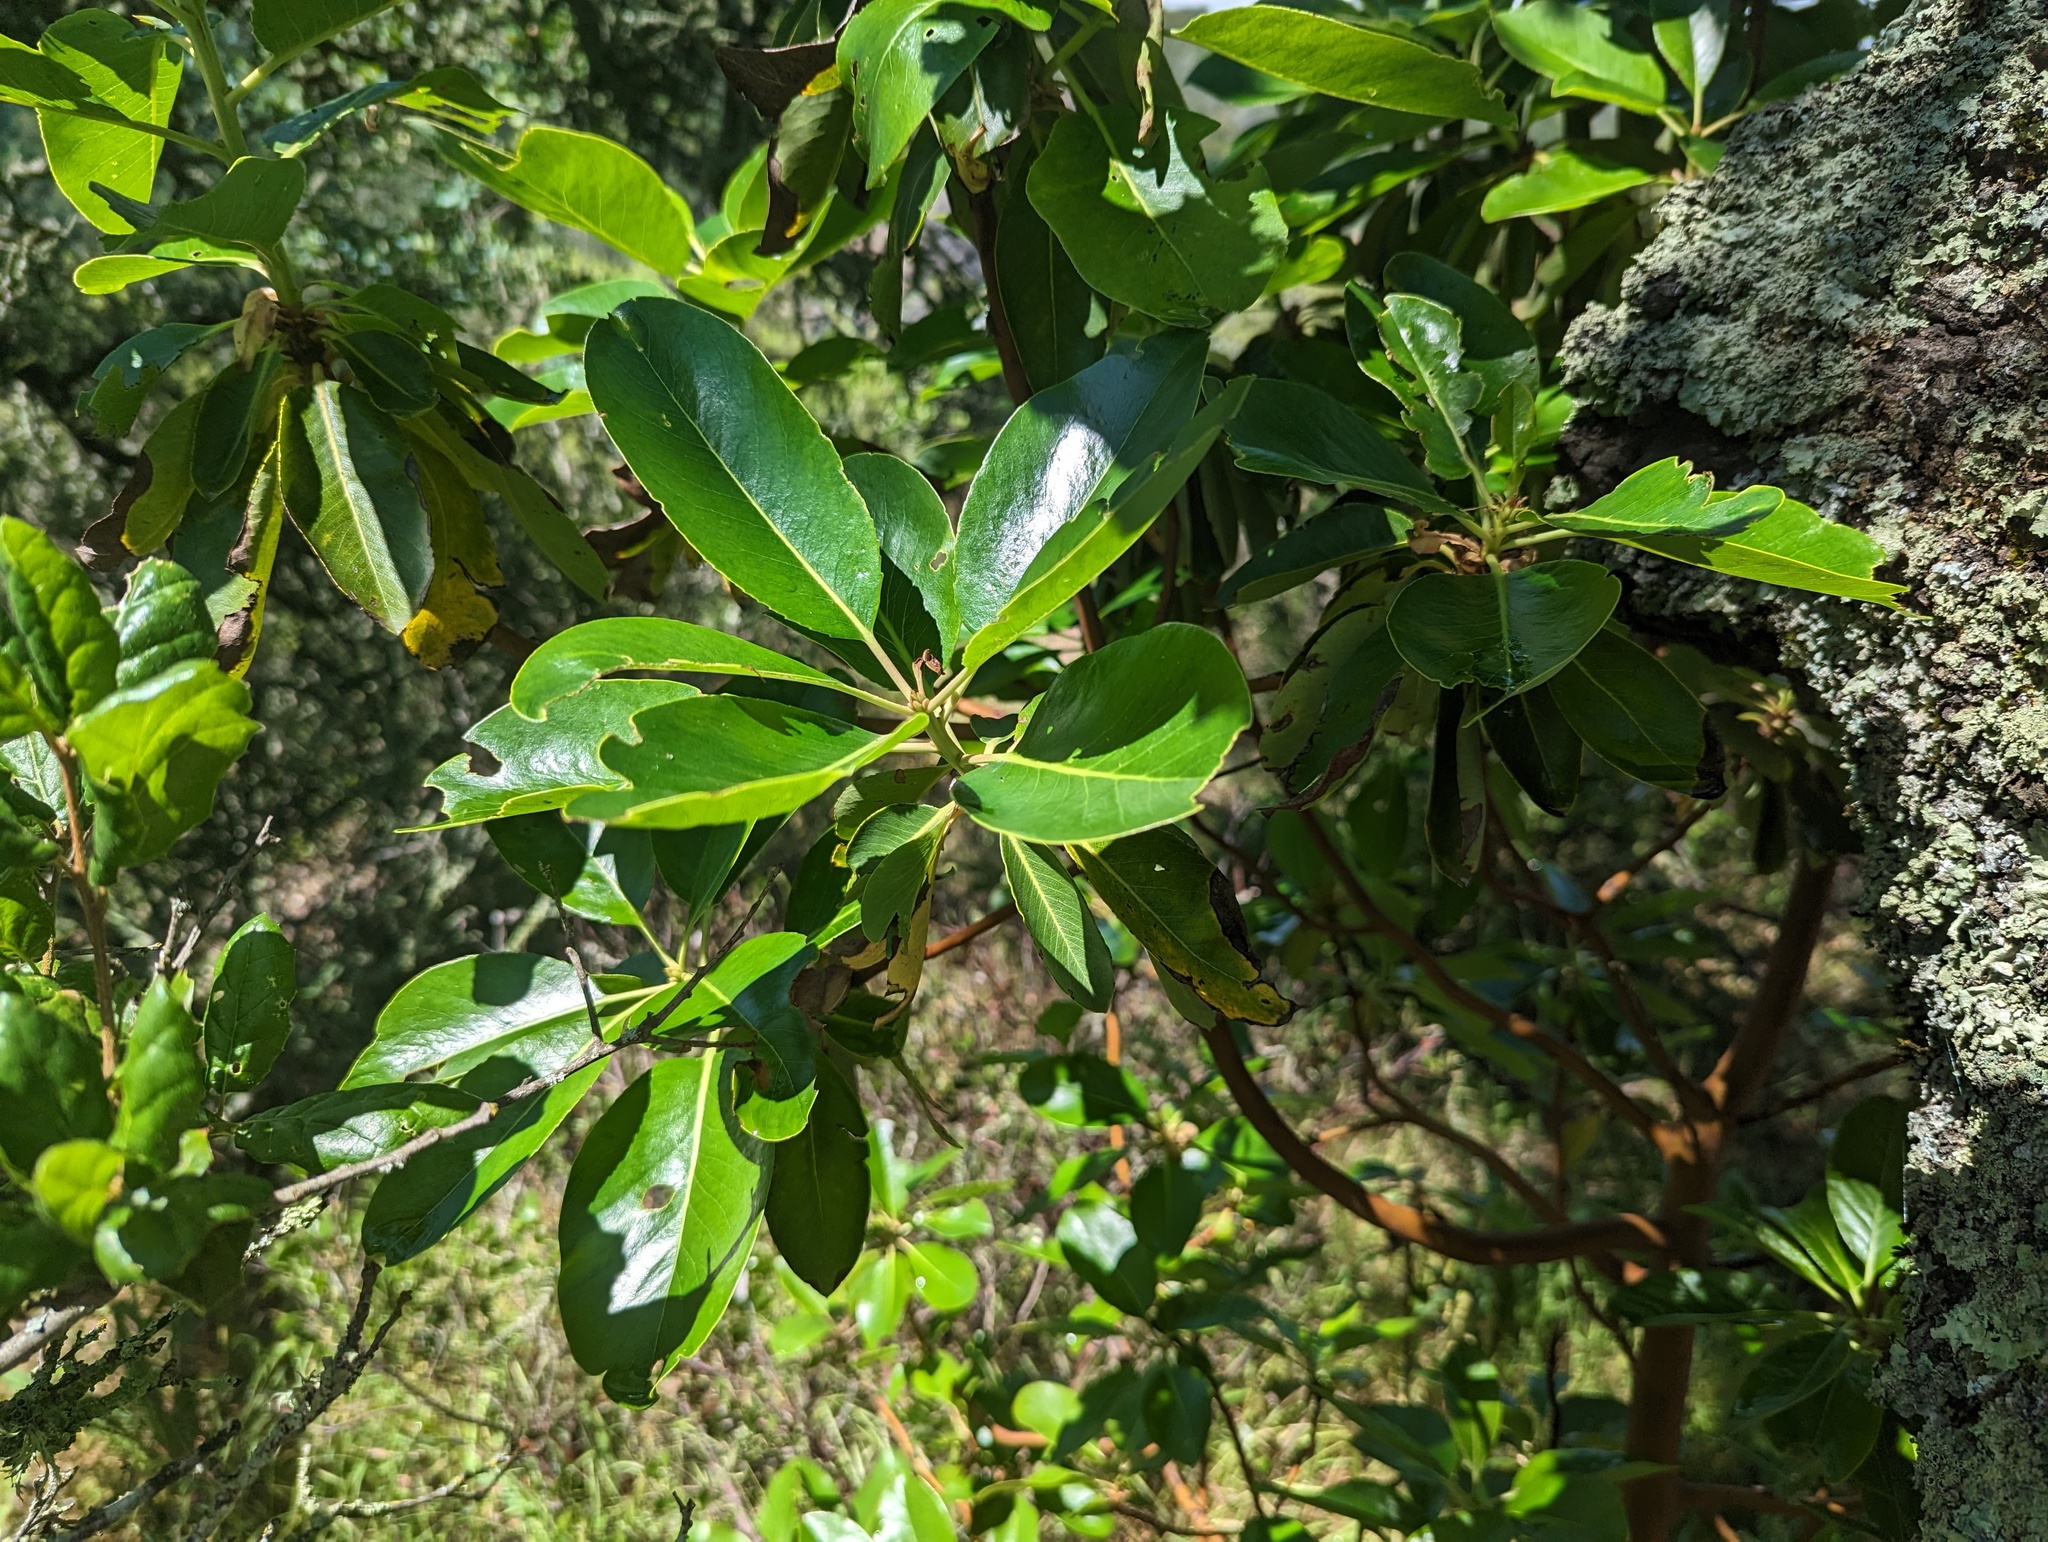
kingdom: Plantae
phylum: Tracheophyta
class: Magnoliopsida
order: Ericales
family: Ericaceae
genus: Arbutus
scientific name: Arbutus menziesii
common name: Pacific madrone
